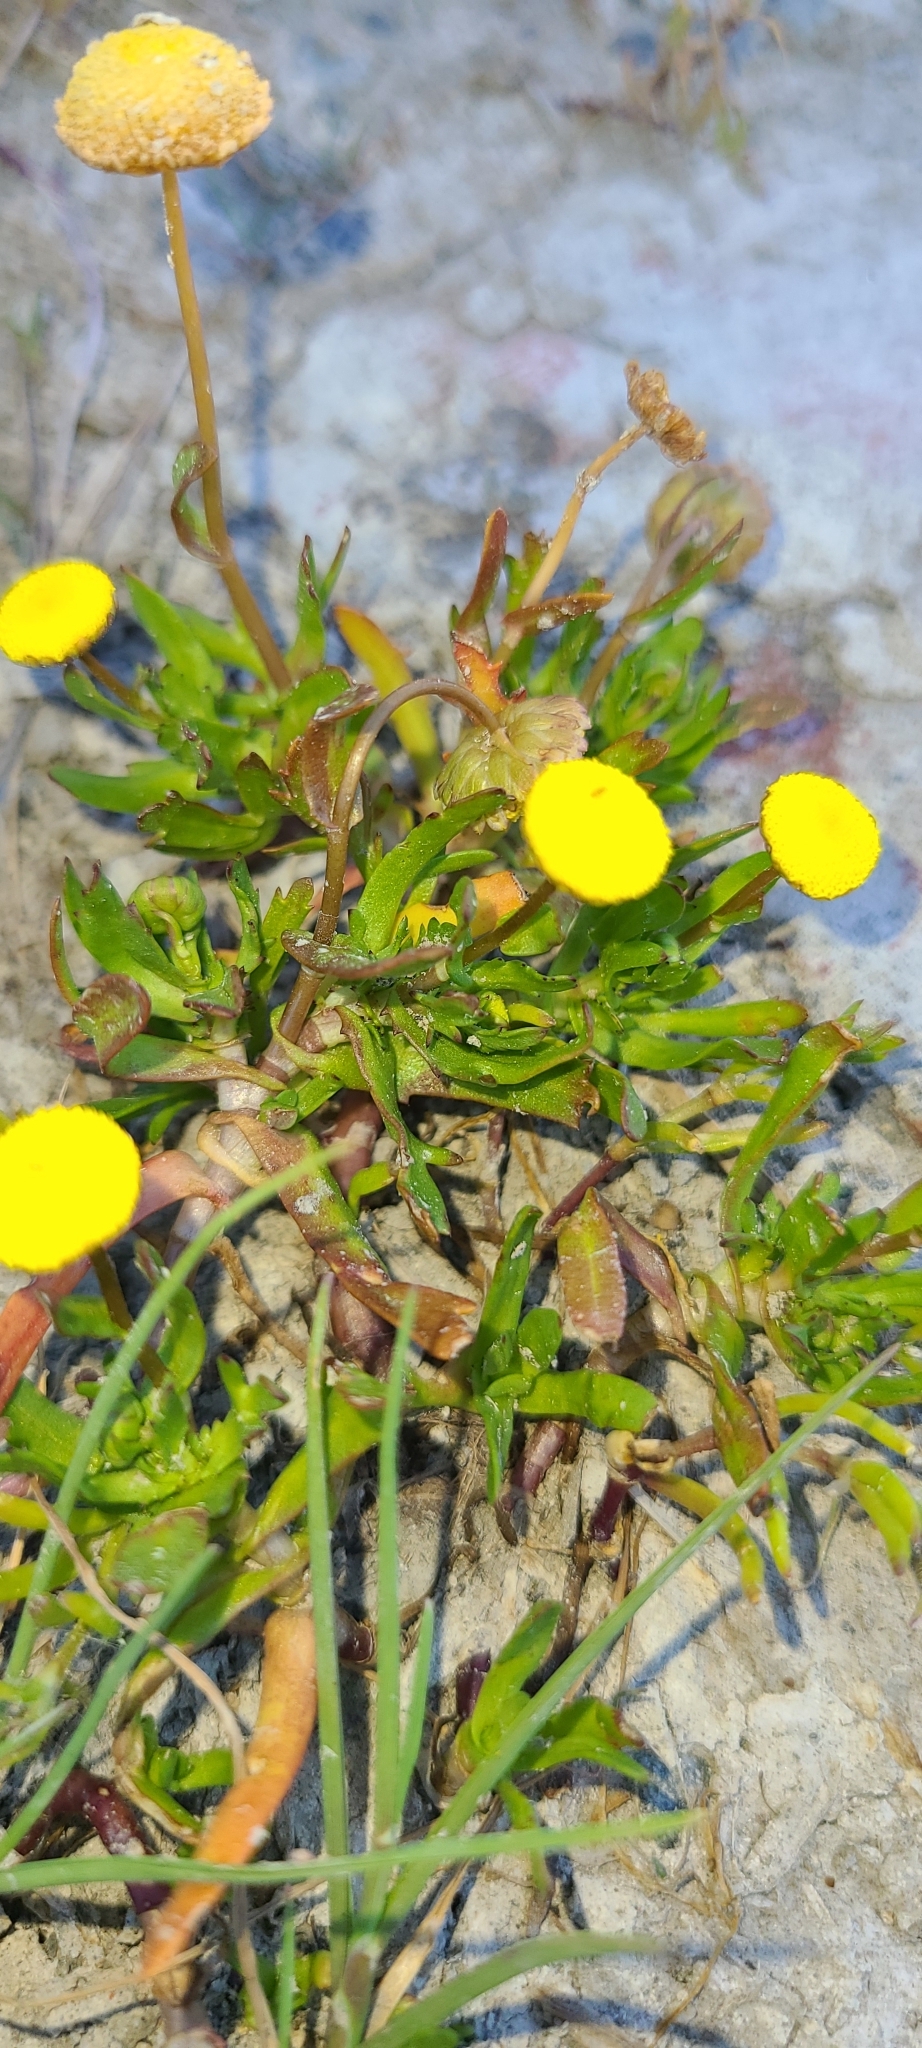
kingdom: Plantae
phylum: Tracheophyta
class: Magnoliopsida
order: Asterales
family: Asteraceae
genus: Cotula
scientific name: Cotula coronopifolia
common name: Buttonweed
